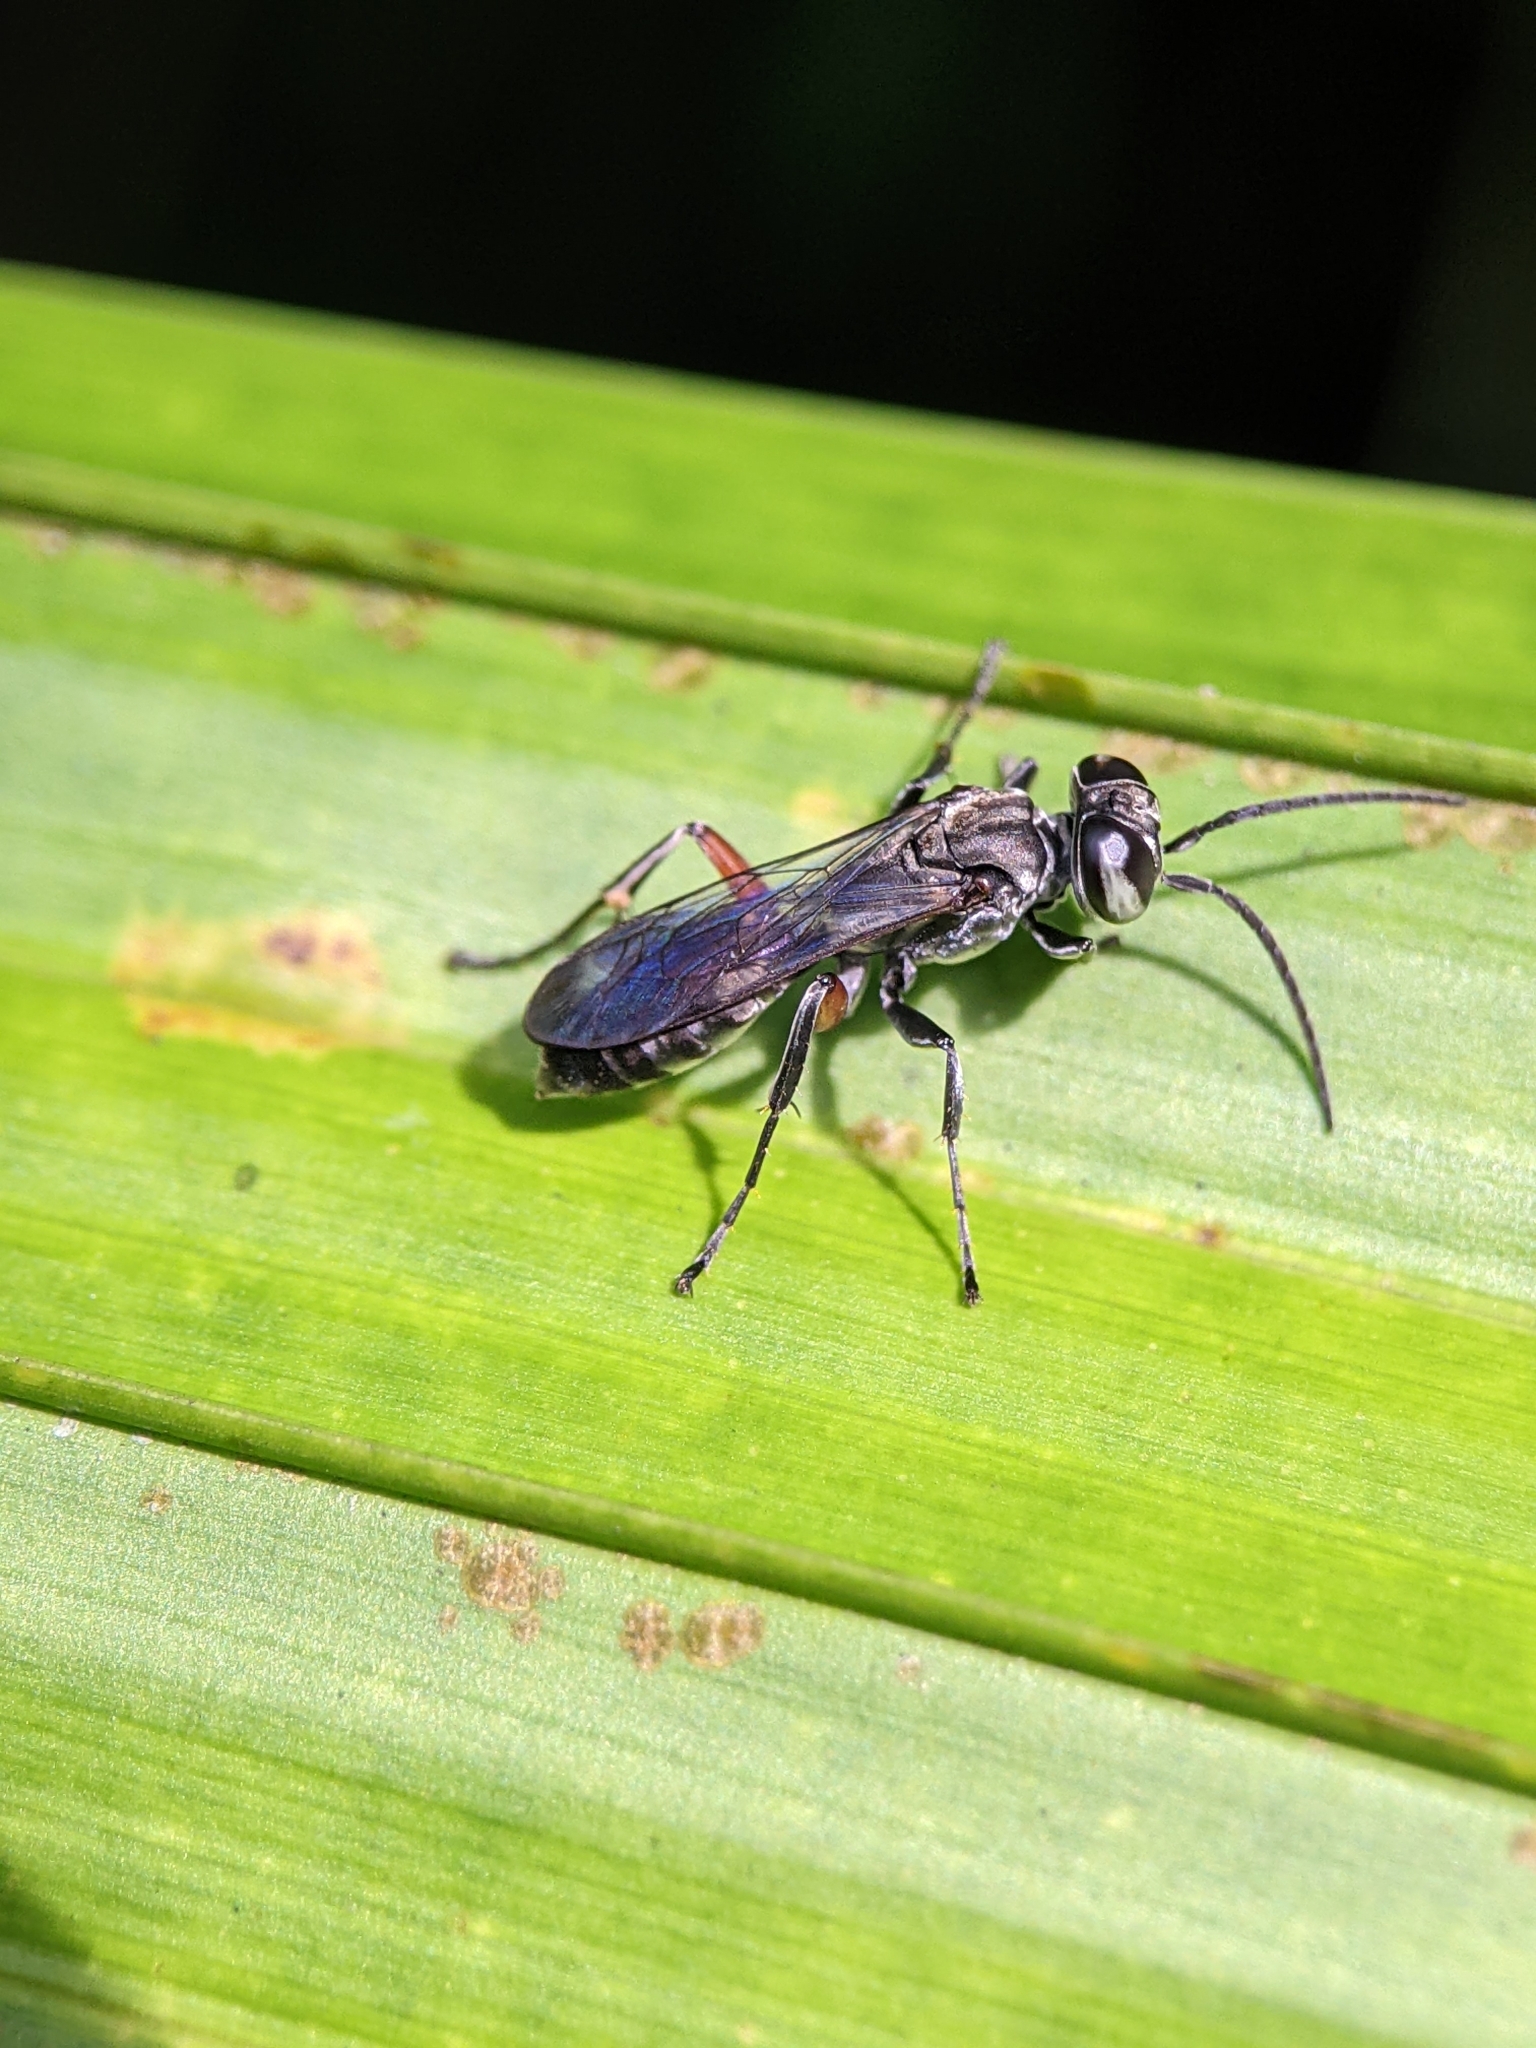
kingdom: Animalia
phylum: Arthropoda
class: Insecta
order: Hymenoptera
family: Crabronidae
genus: Liris
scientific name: Liris subtessellatus
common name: Crabronid wasp
